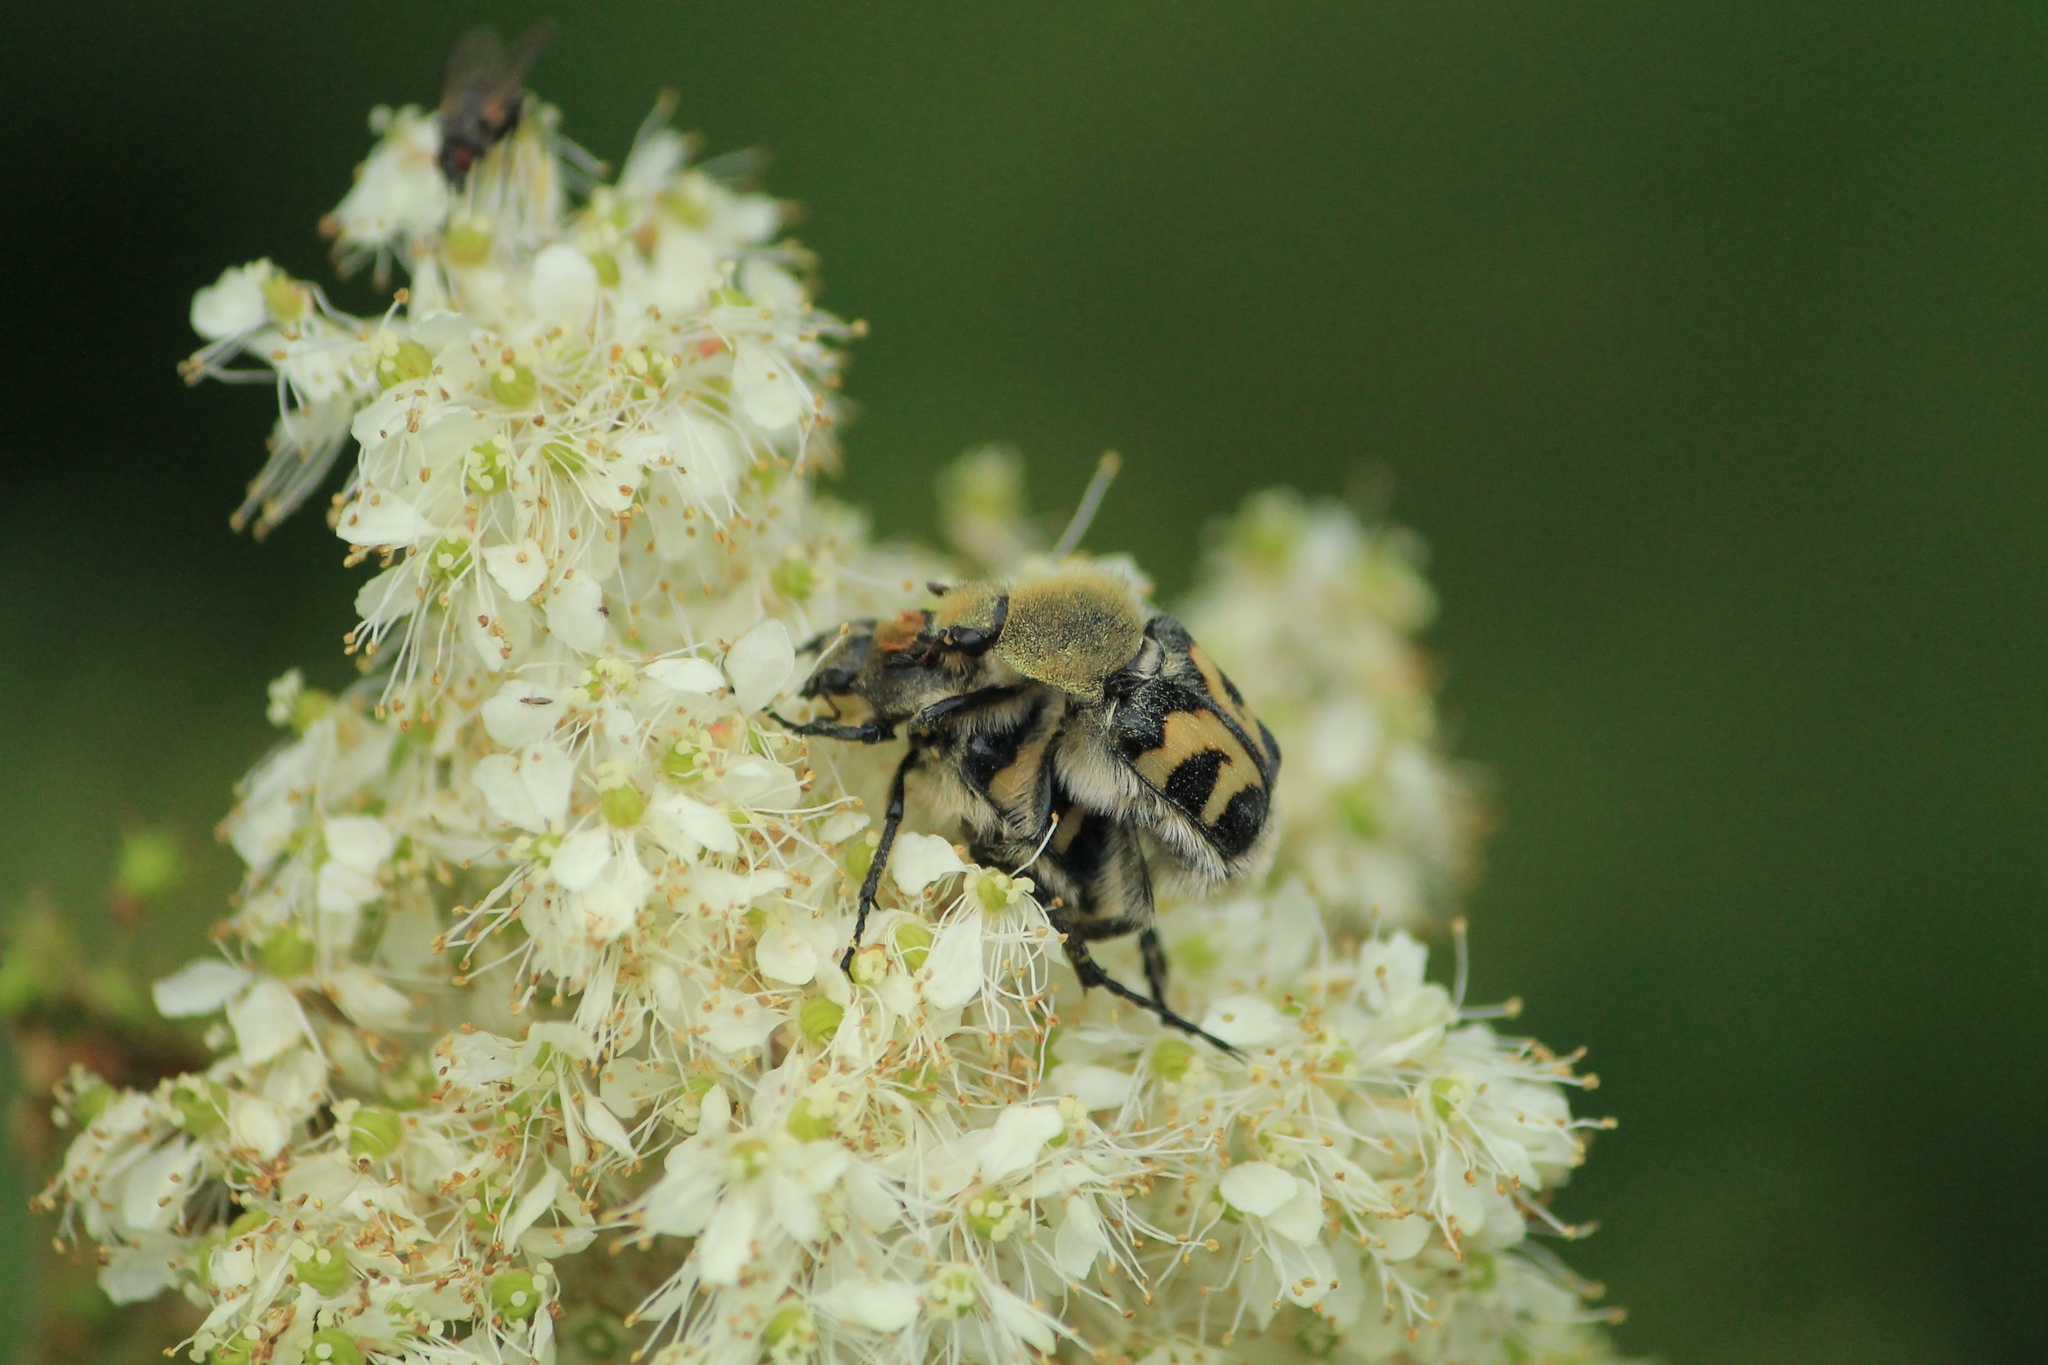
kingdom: Animalia
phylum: Arthropoda
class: Insecta
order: Coleoptera
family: Scarabaeidae
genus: Trichius
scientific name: Trichius fasciatus
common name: Bee beetle
